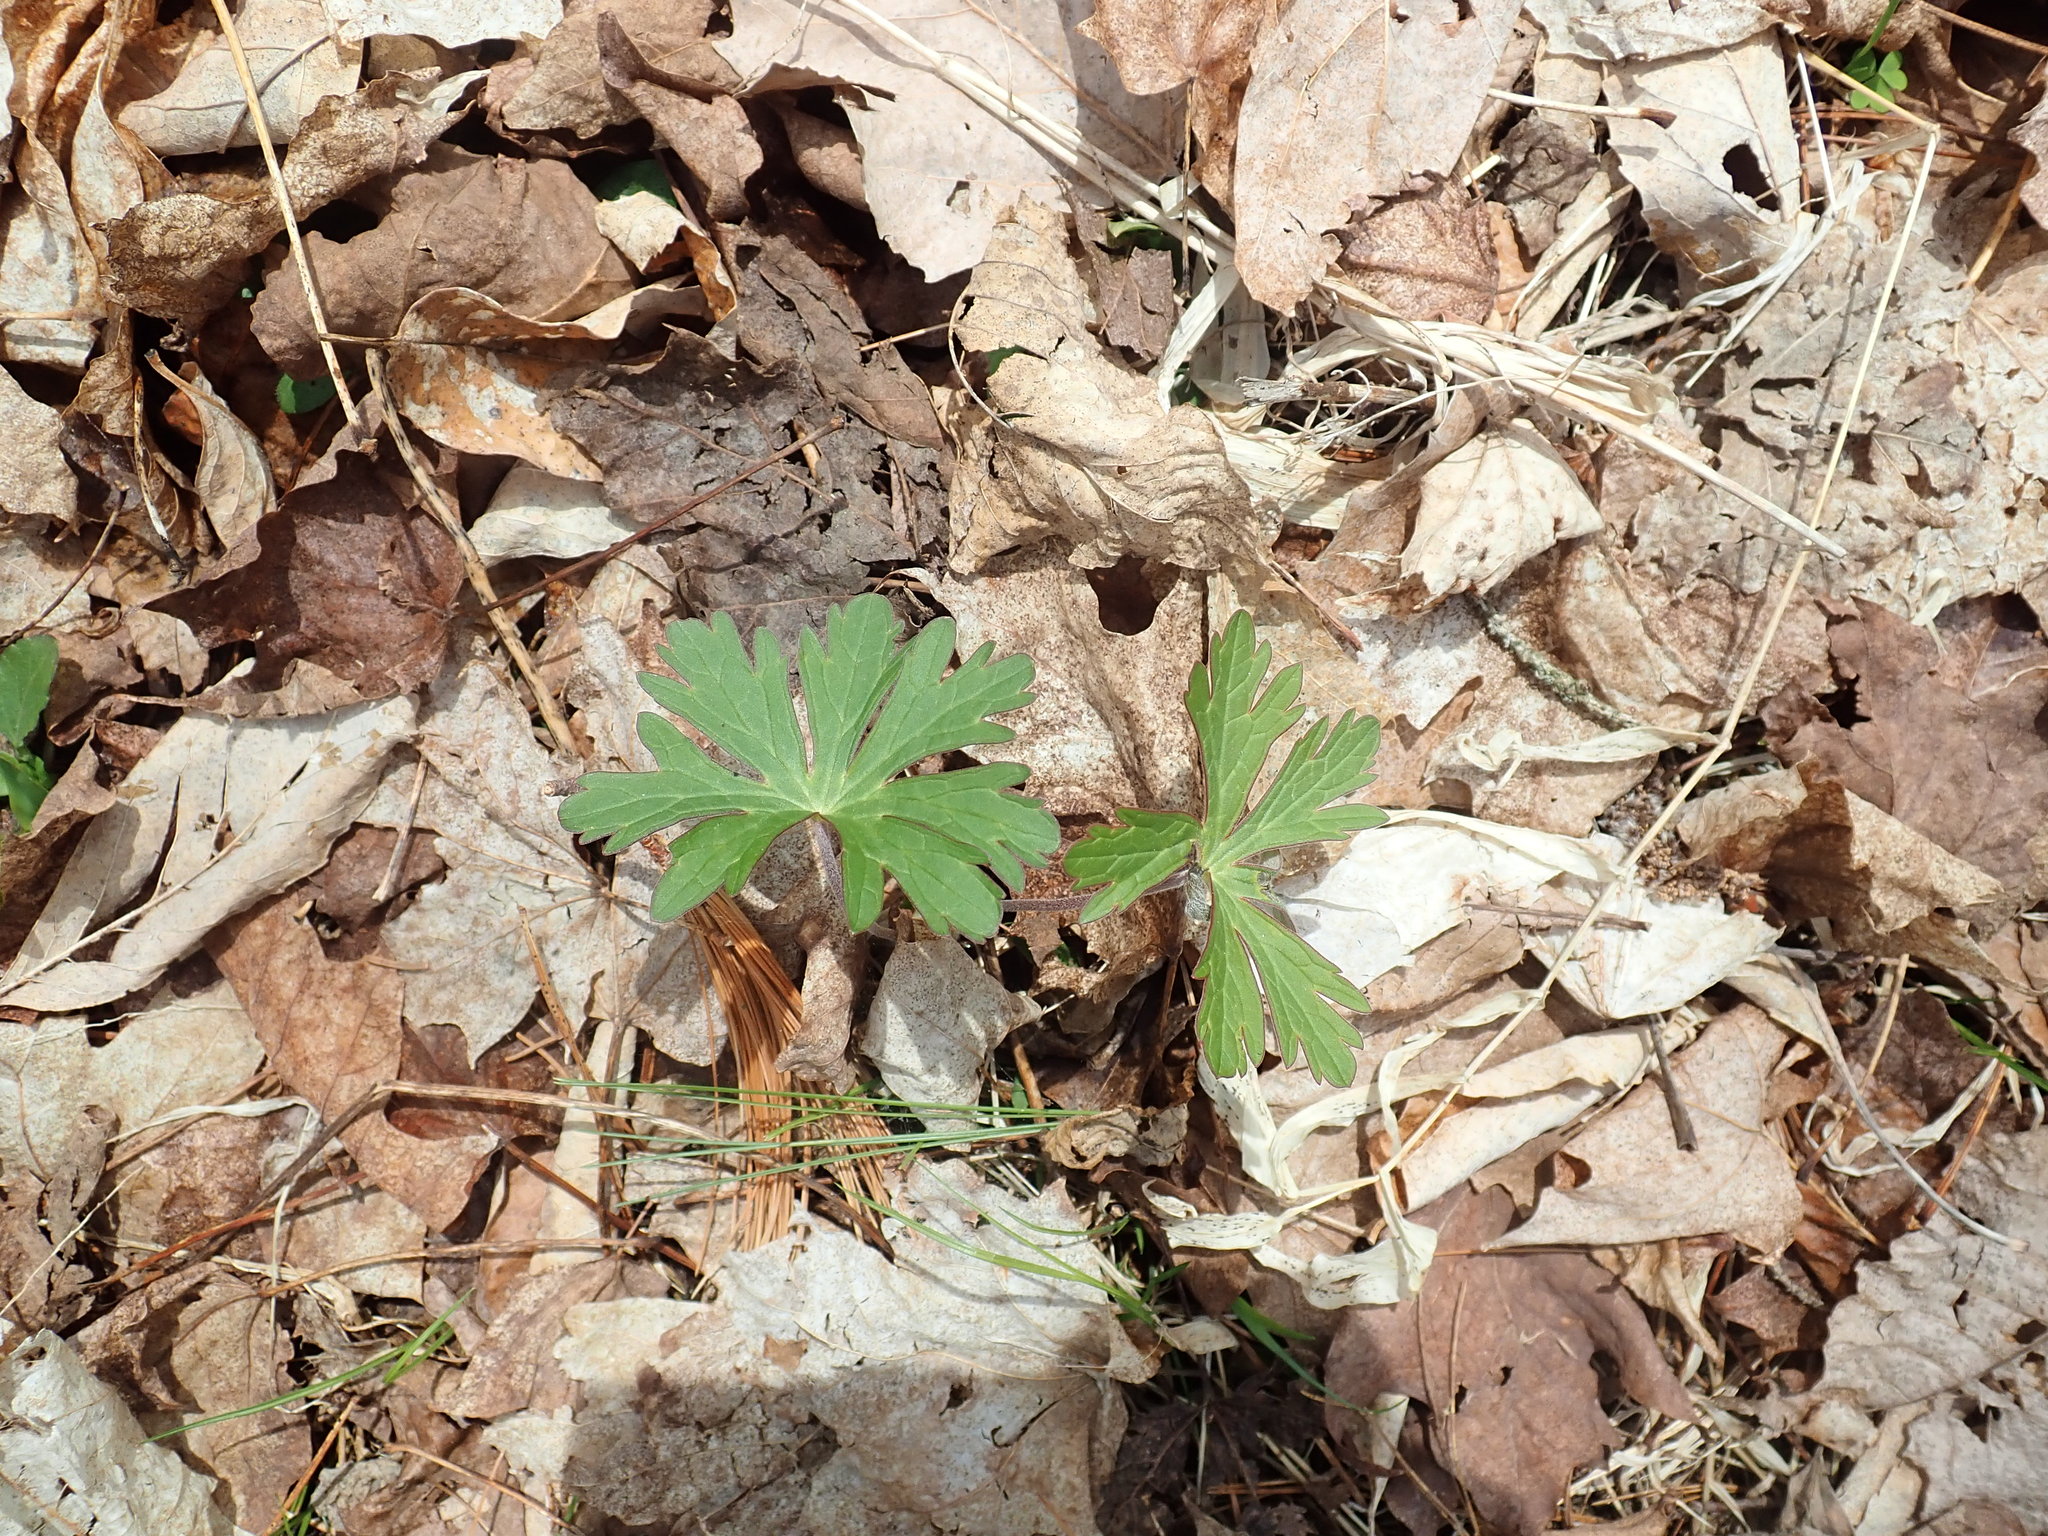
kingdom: Plantae
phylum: Tracheophyta
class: Magnoliopsida
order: Geraniales
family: Geraniaceae
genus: Geranium
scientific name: Geranium maculatum
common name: Spotted geranium
